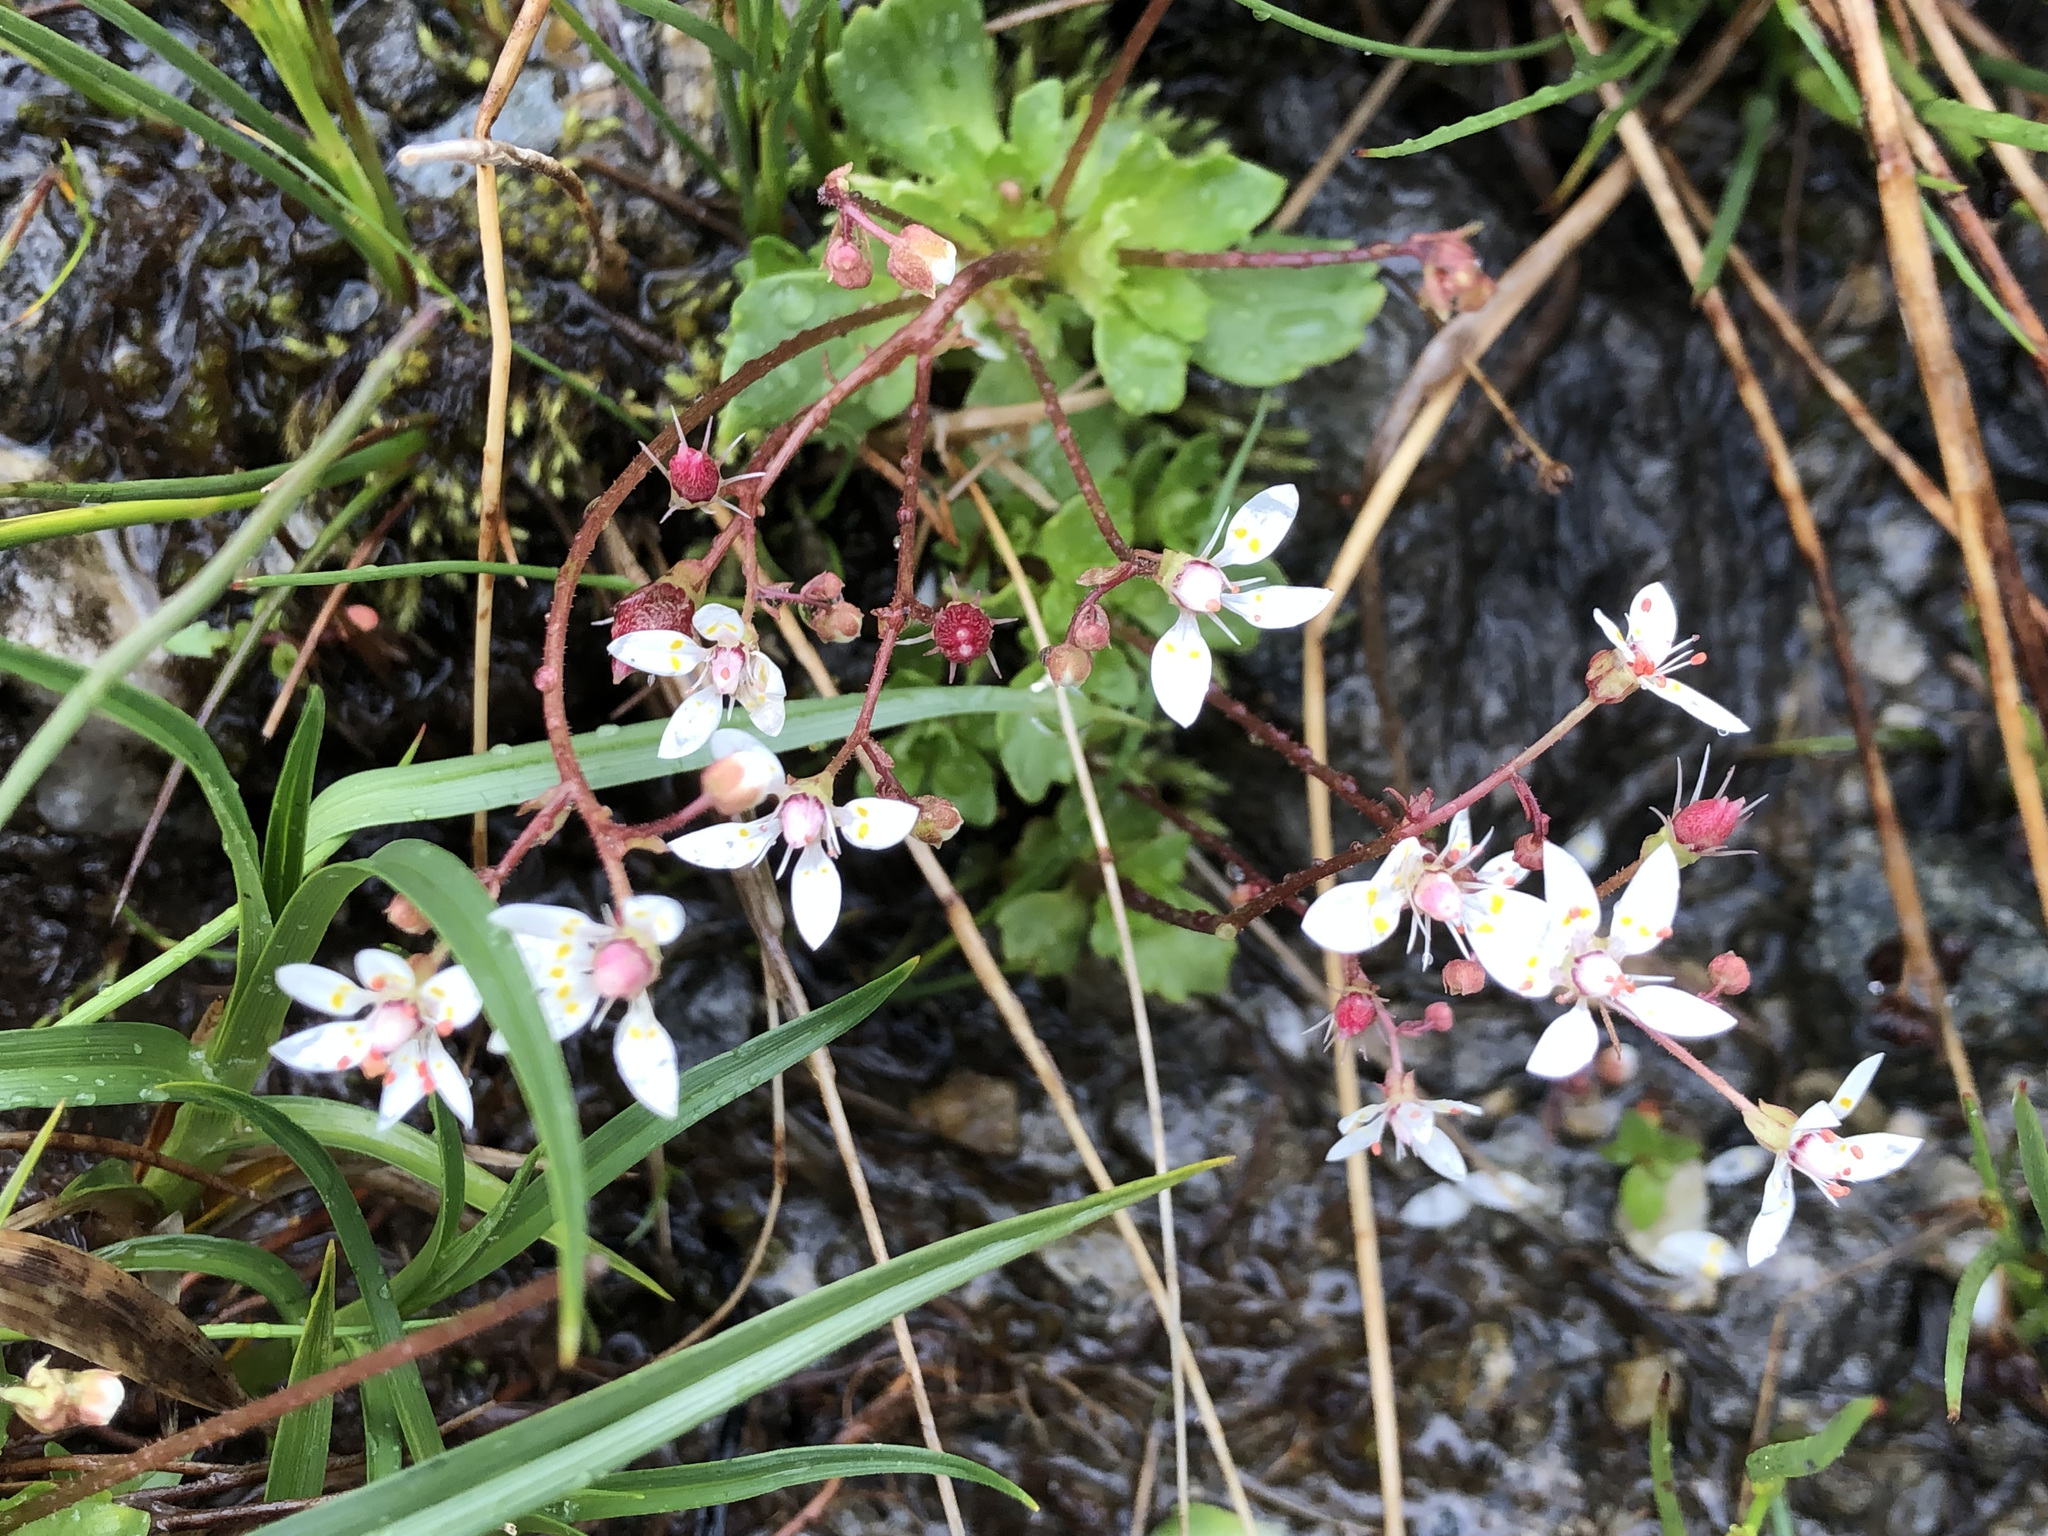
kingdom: Plantae
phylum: Tracheophyta
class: Magnoliopsida
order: Saxifragales
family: Saxifragaceae
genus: Micranthes
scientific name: Micranthes stellaris
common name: Starry saxifrage
